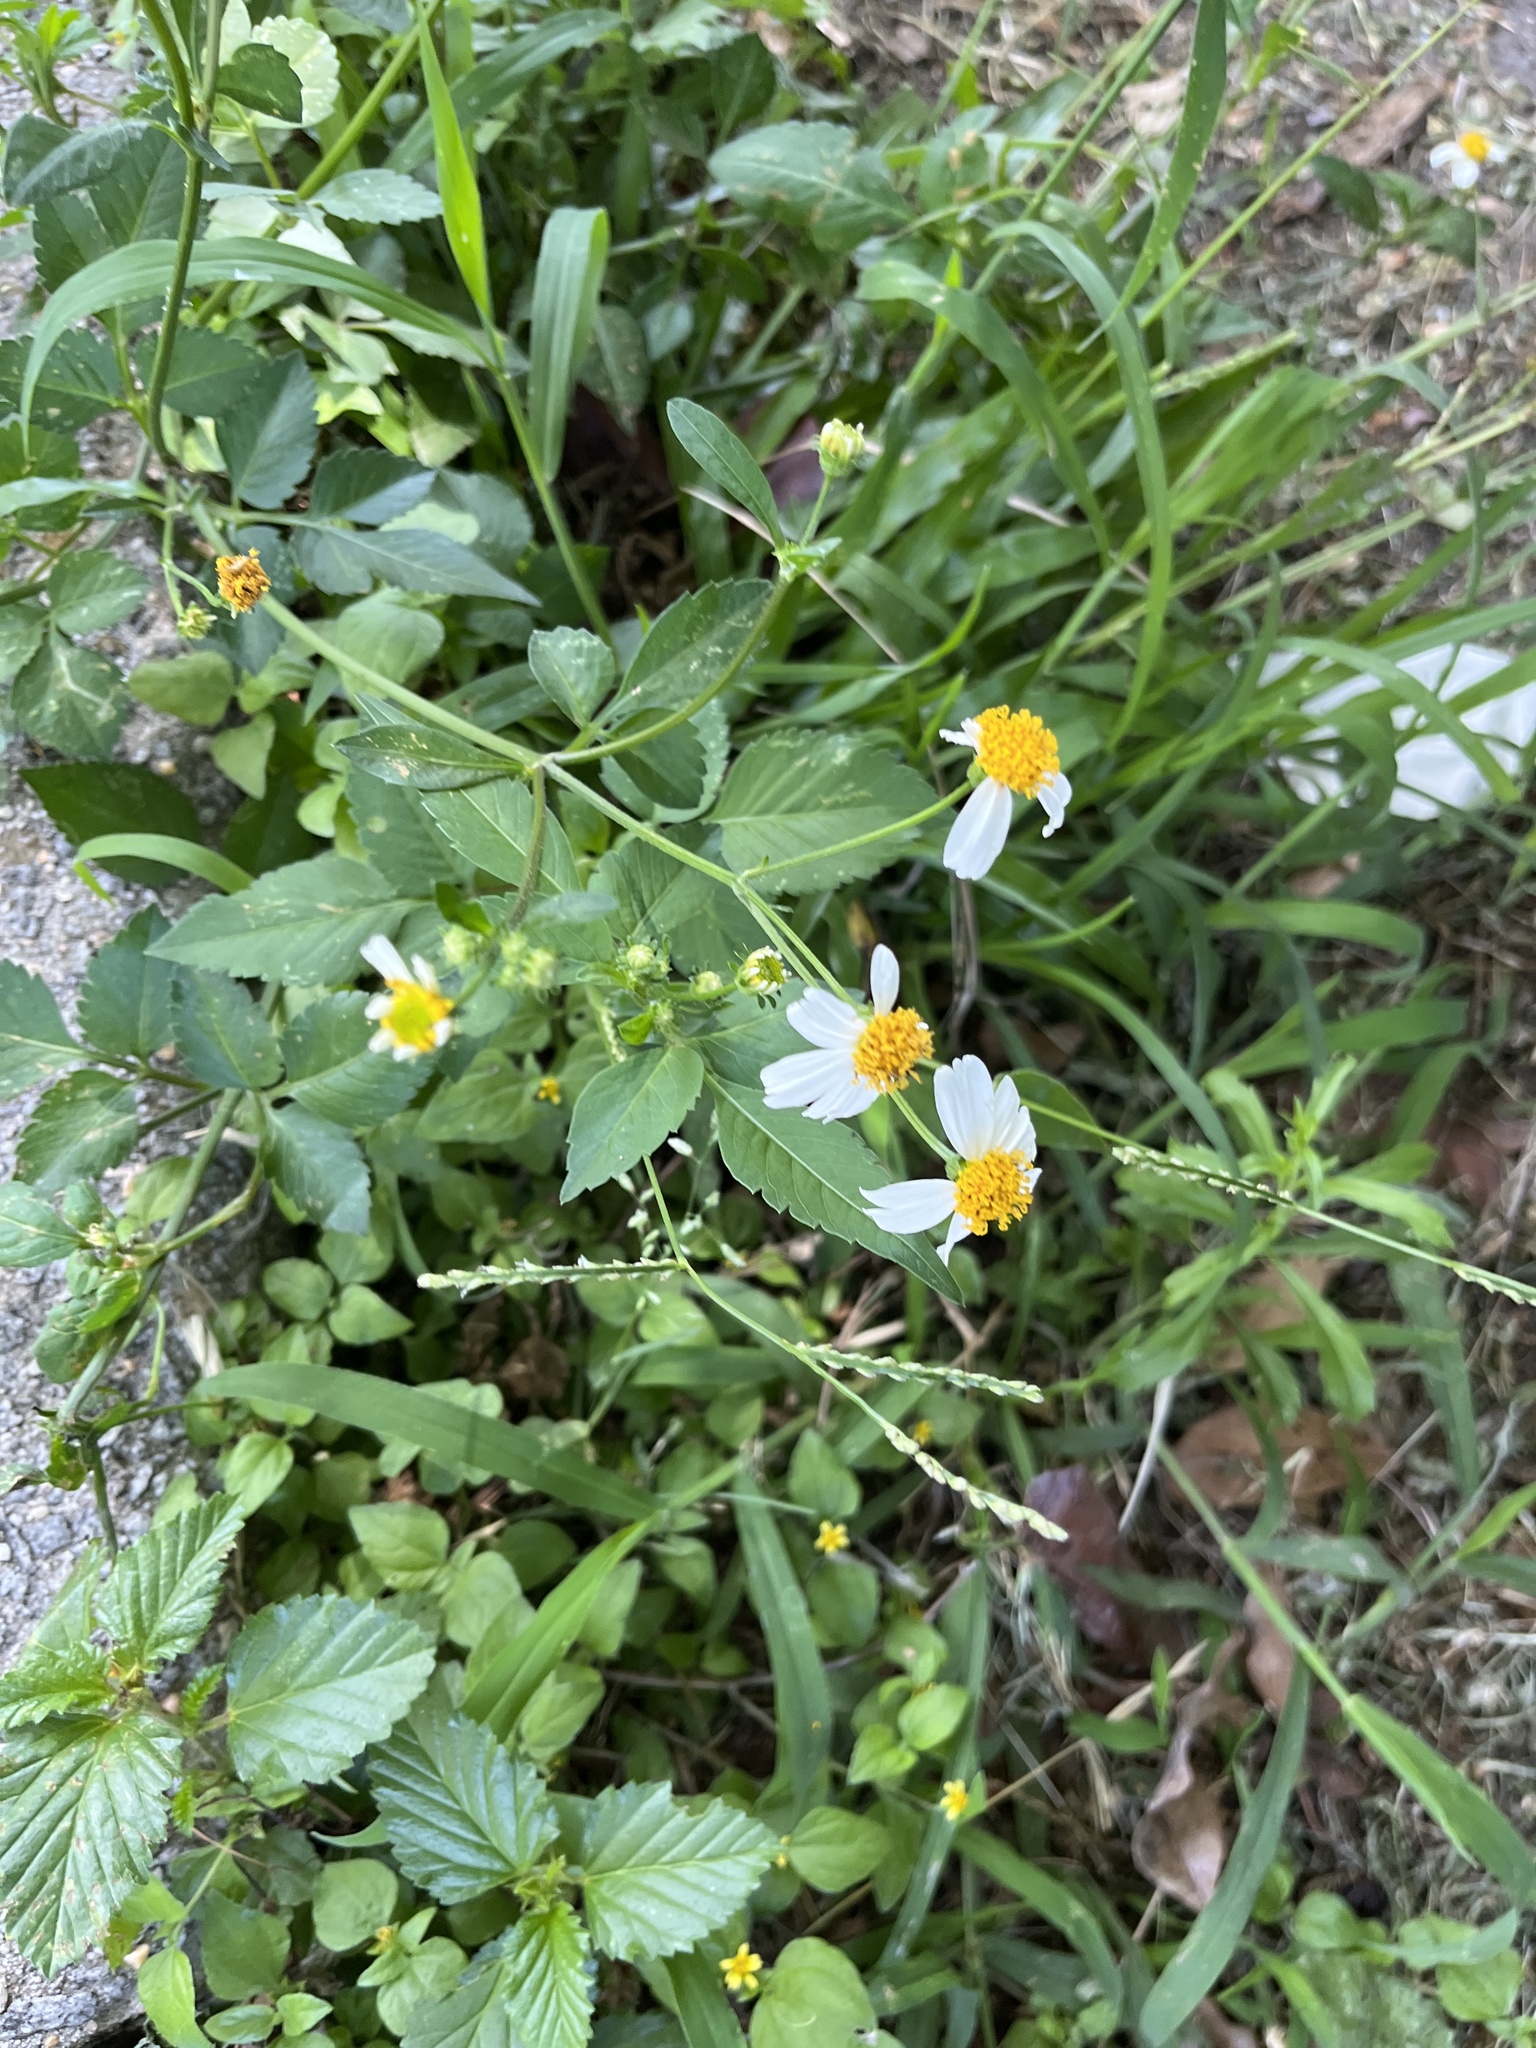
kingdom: Plantae
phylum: Tracheophyta
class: Magnoliopsida
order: Asterales
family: Asteraceae
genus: Bidens
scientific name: Bidens alba
